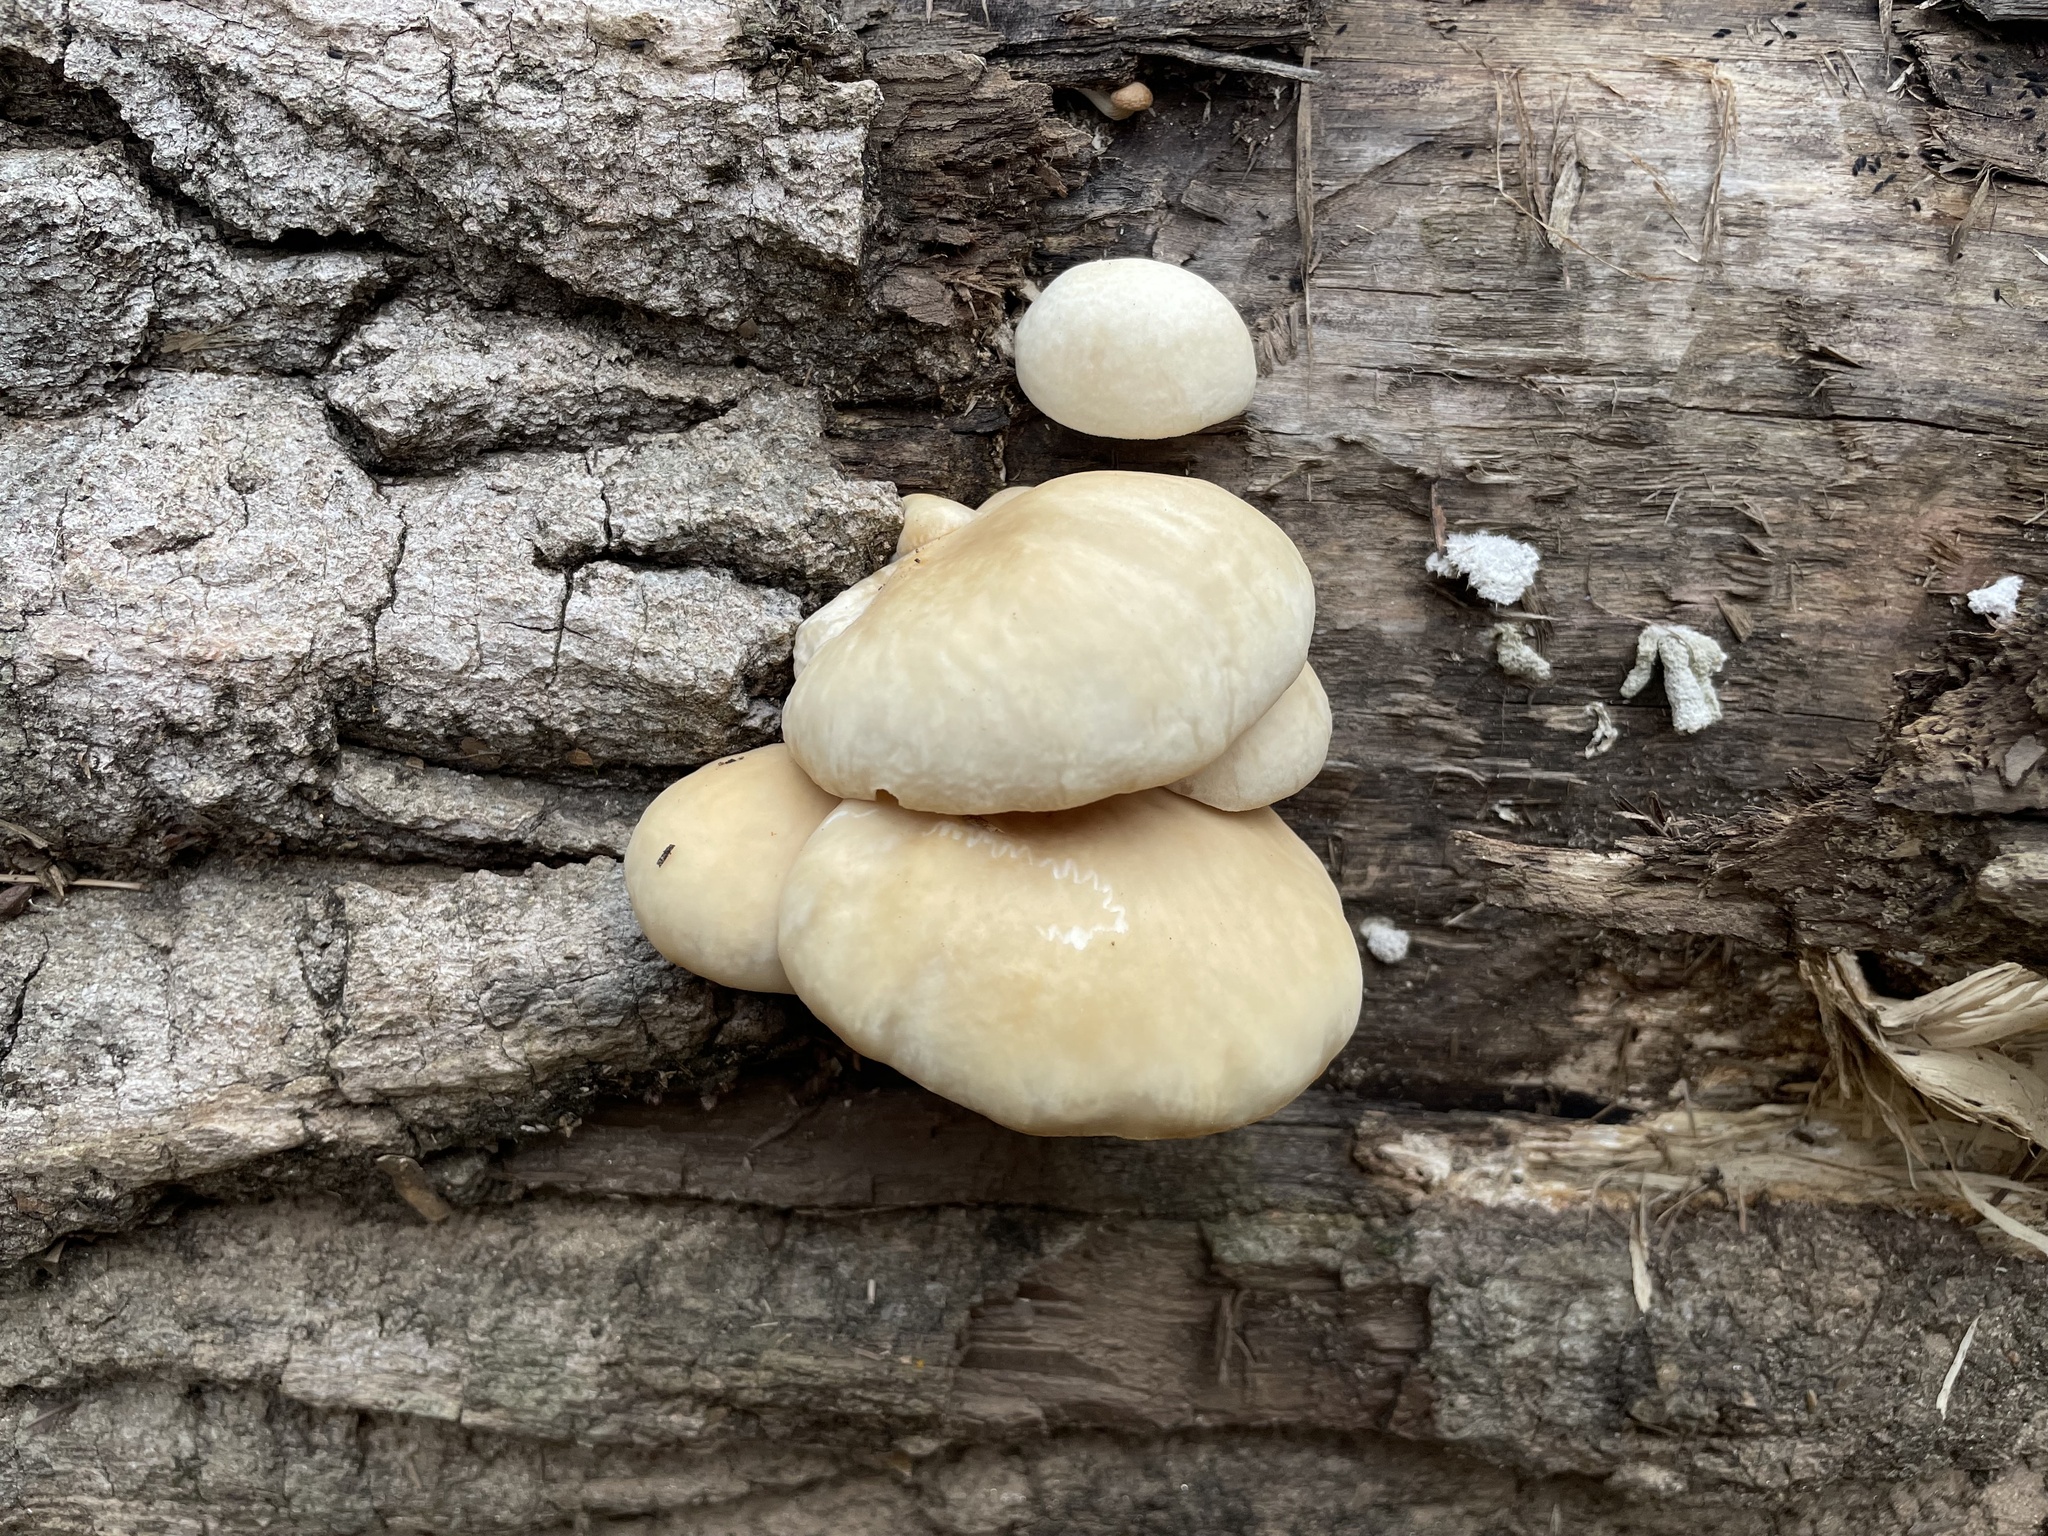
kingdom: Fungi
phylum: Basidiomycota
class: Agaricomycetes
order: Agaricales
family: Pleurotaceae
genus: Pleurotus
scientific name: Pleurotus
